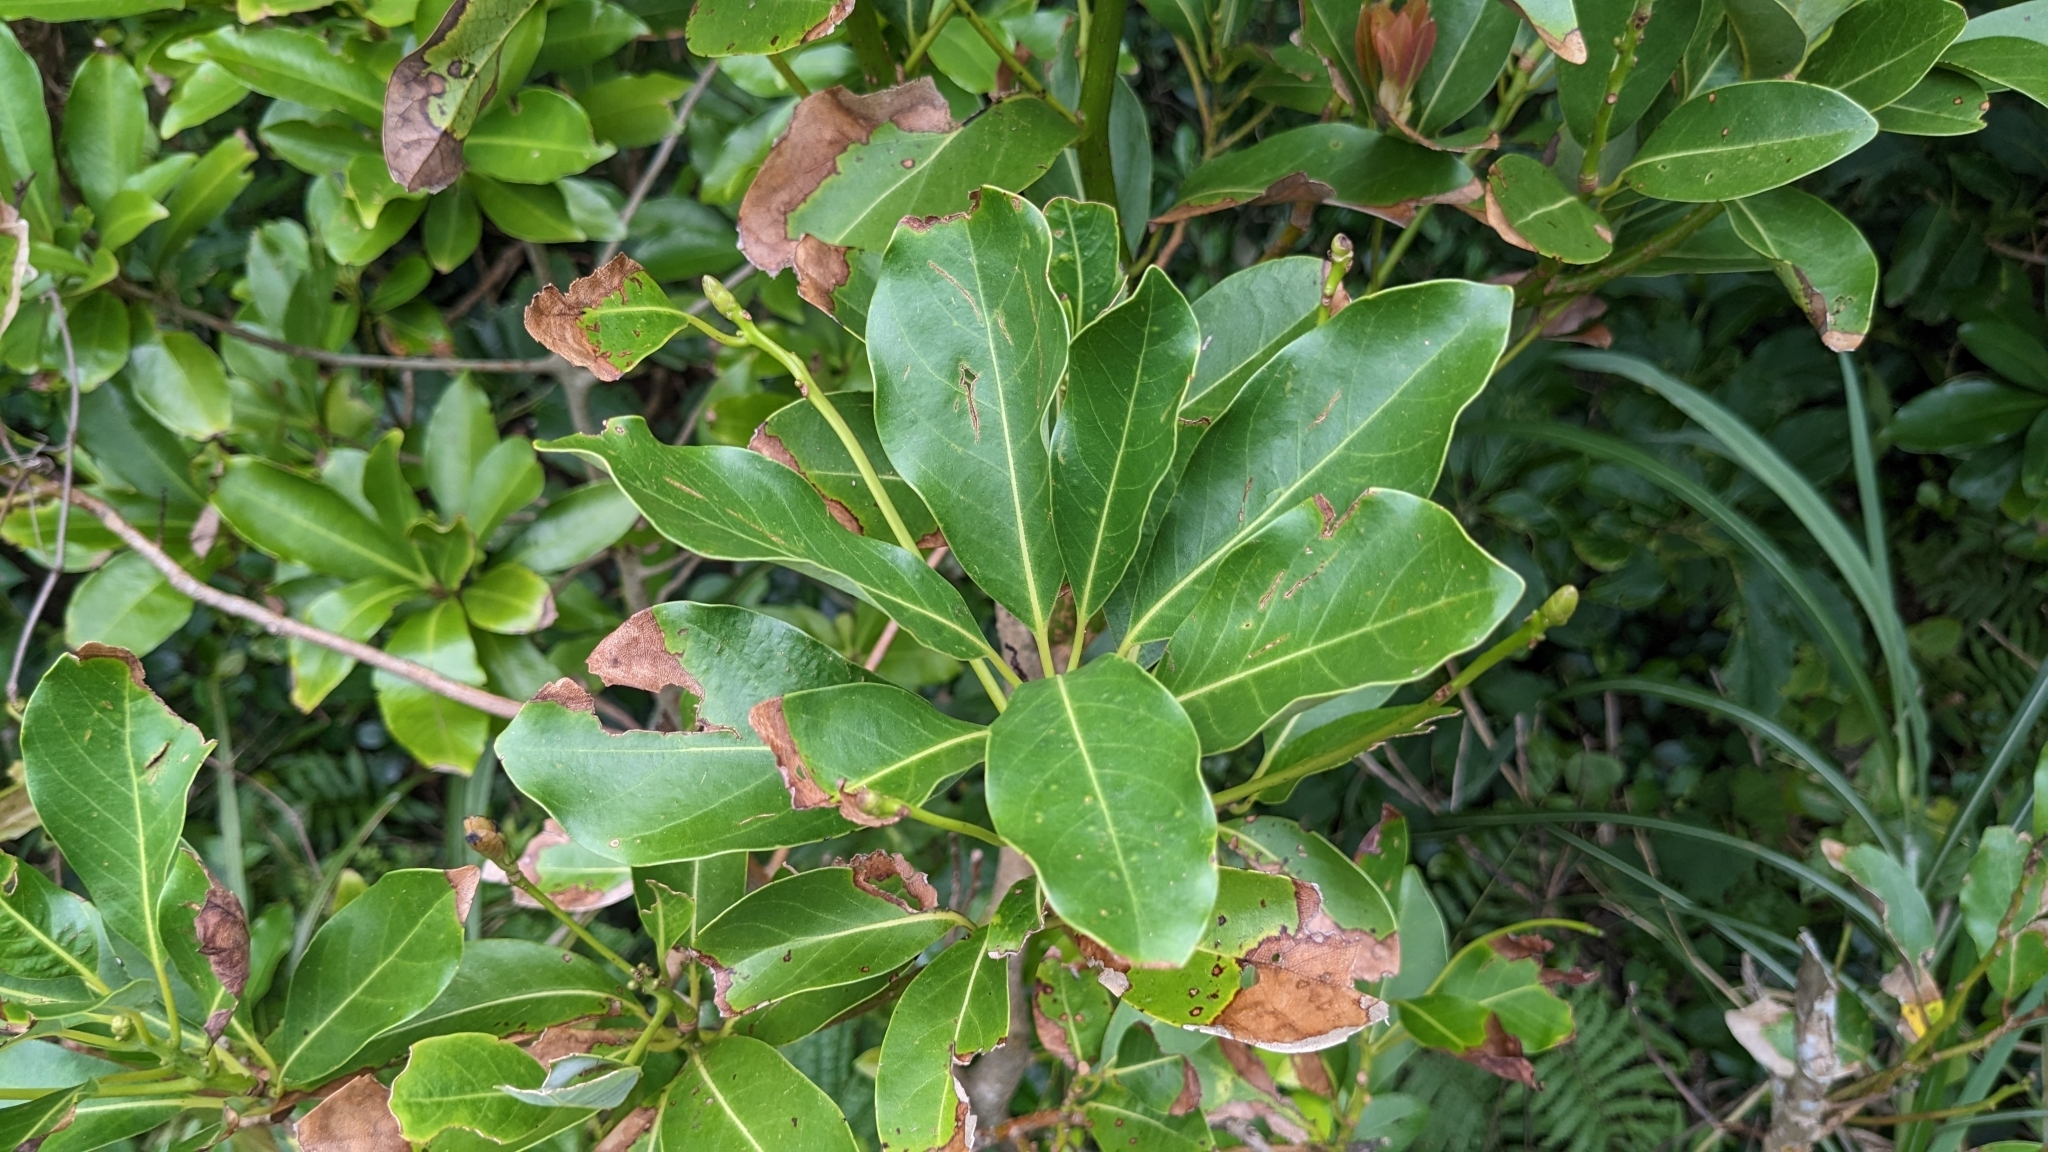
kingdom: Plantae
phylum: Tracheophyta
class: Magnoliopsida
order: Laurales
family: Lauraceae
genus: Machilus
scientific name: Machilus thunbergii
